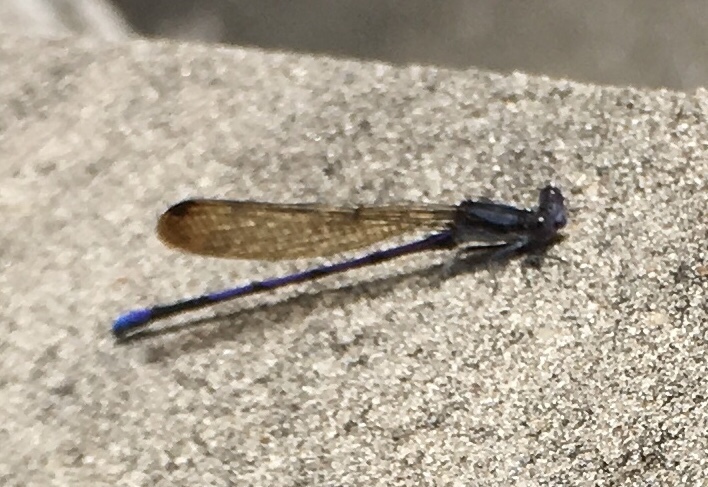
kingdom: Animalia
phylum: Arthropoda
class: Insecta
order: Odonata
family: Coenagrionidae
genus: Argia
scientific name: Argia fumipennis
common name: Variable dancer
